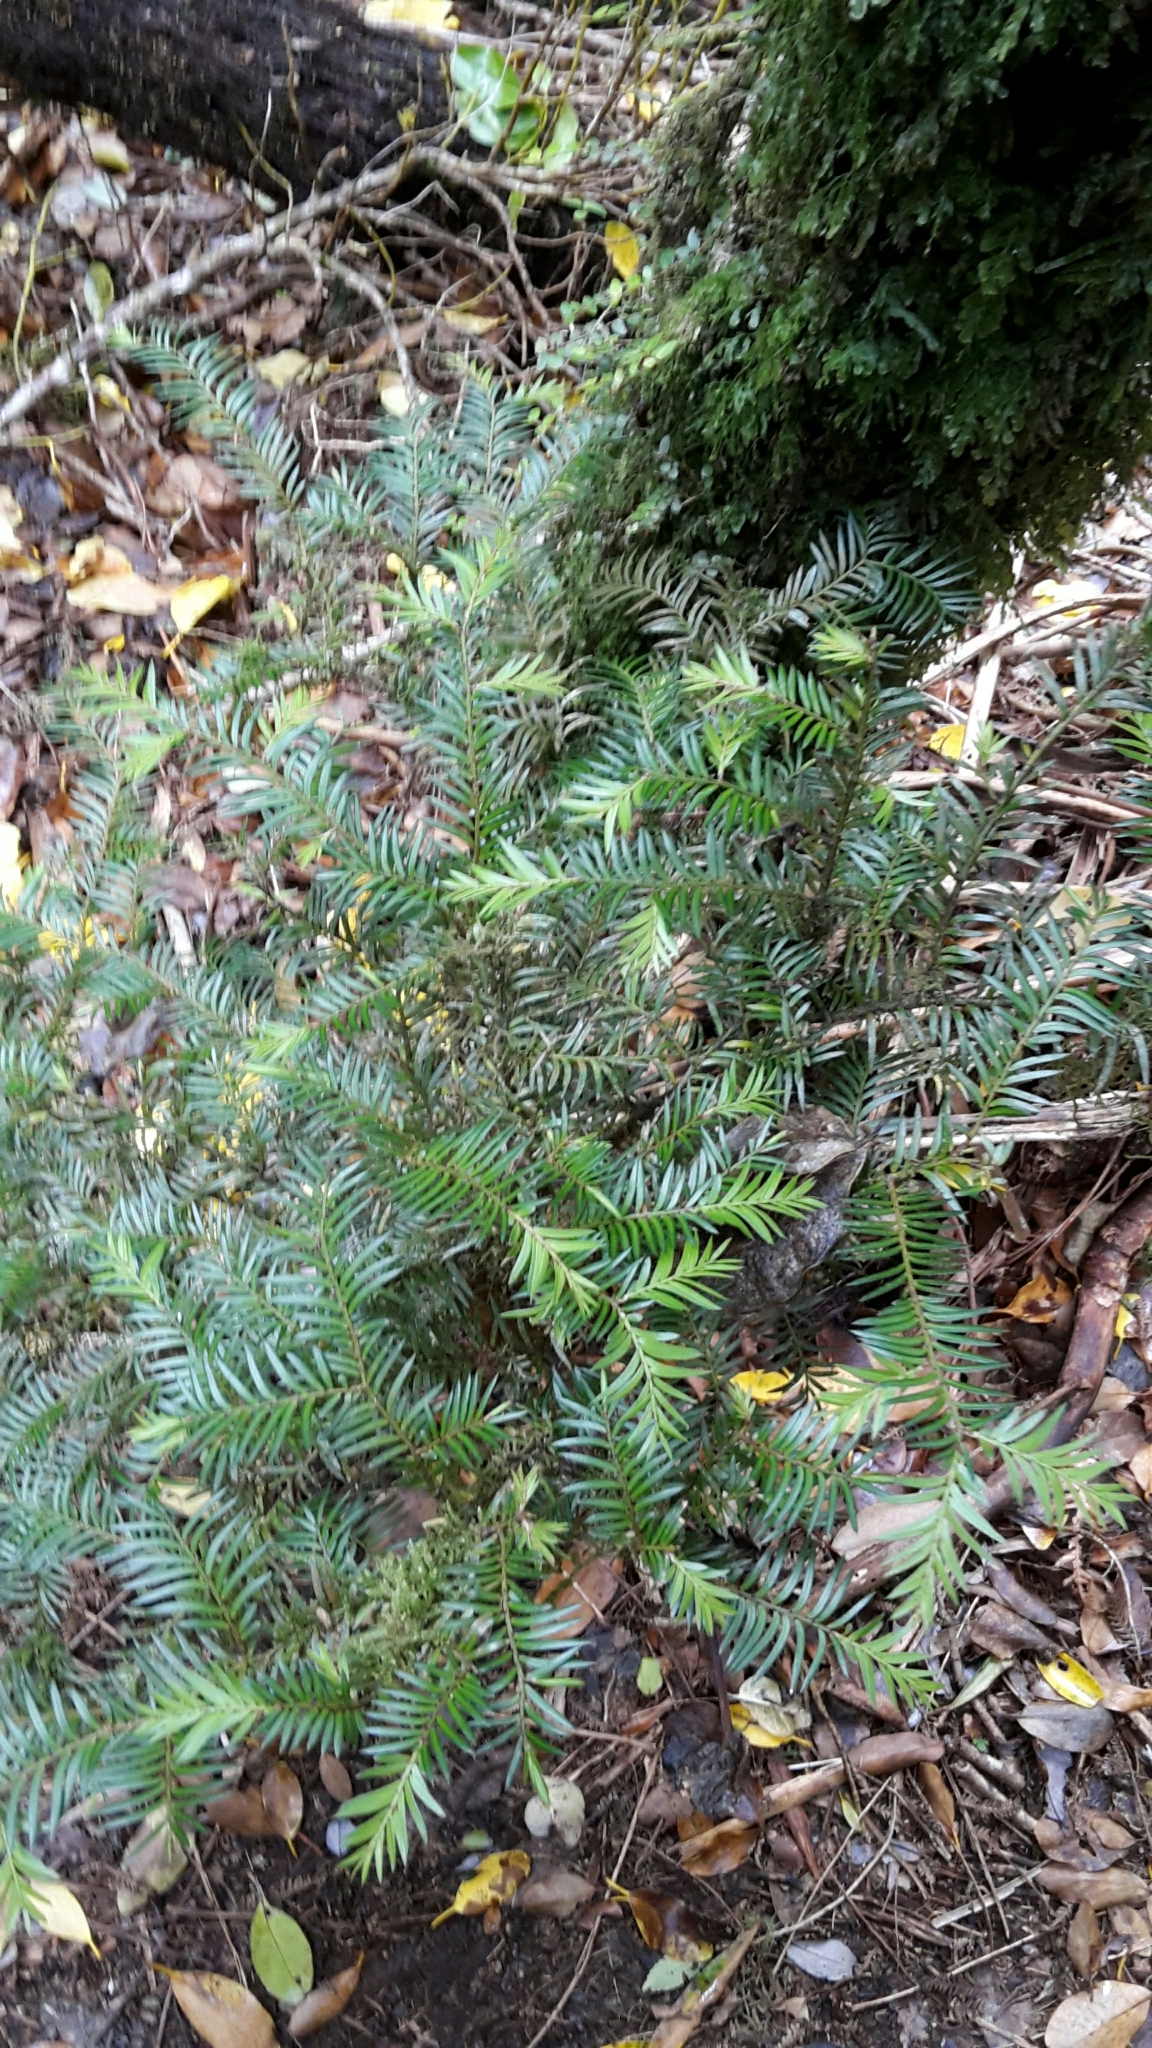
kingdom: Plantae
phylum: Tracheophyta
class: Pinopsida
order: Pinales
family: Podocarpaceae
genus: Prumnopitys
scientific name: Prumnopitys ferruginea
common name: Brown pine
